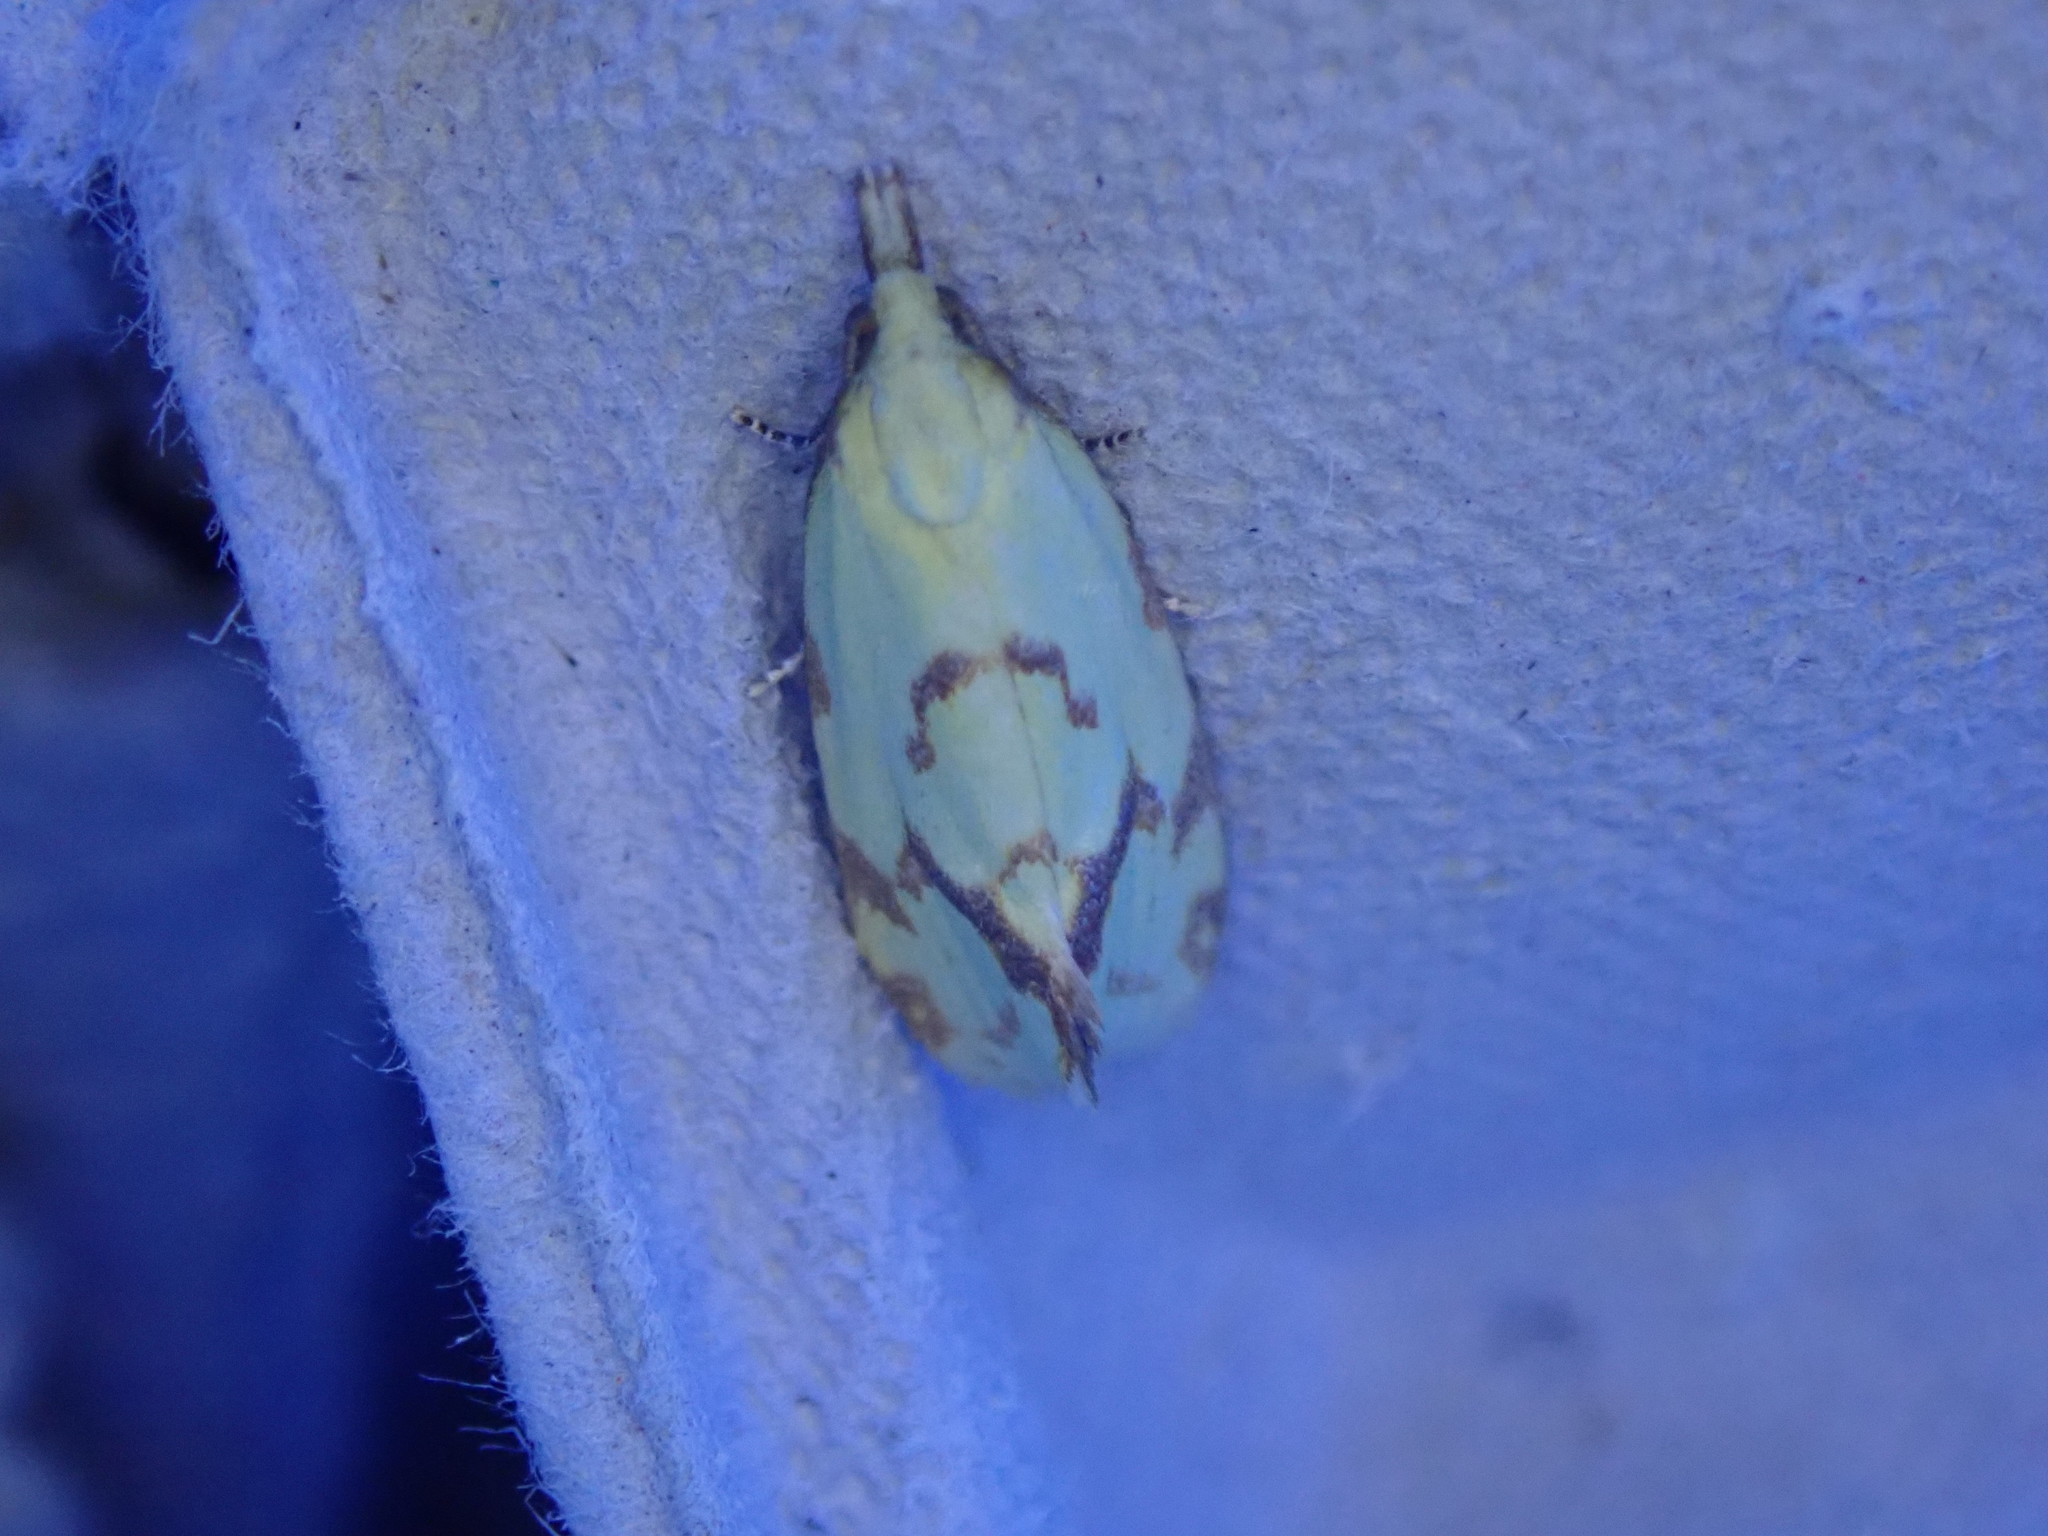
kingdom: Animalia
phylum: Arthropoda
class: Insecta
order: Lepidoptera
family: Tortricidae
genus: Agapeta
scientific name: Agapeta hamana
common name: Common yellow conch
